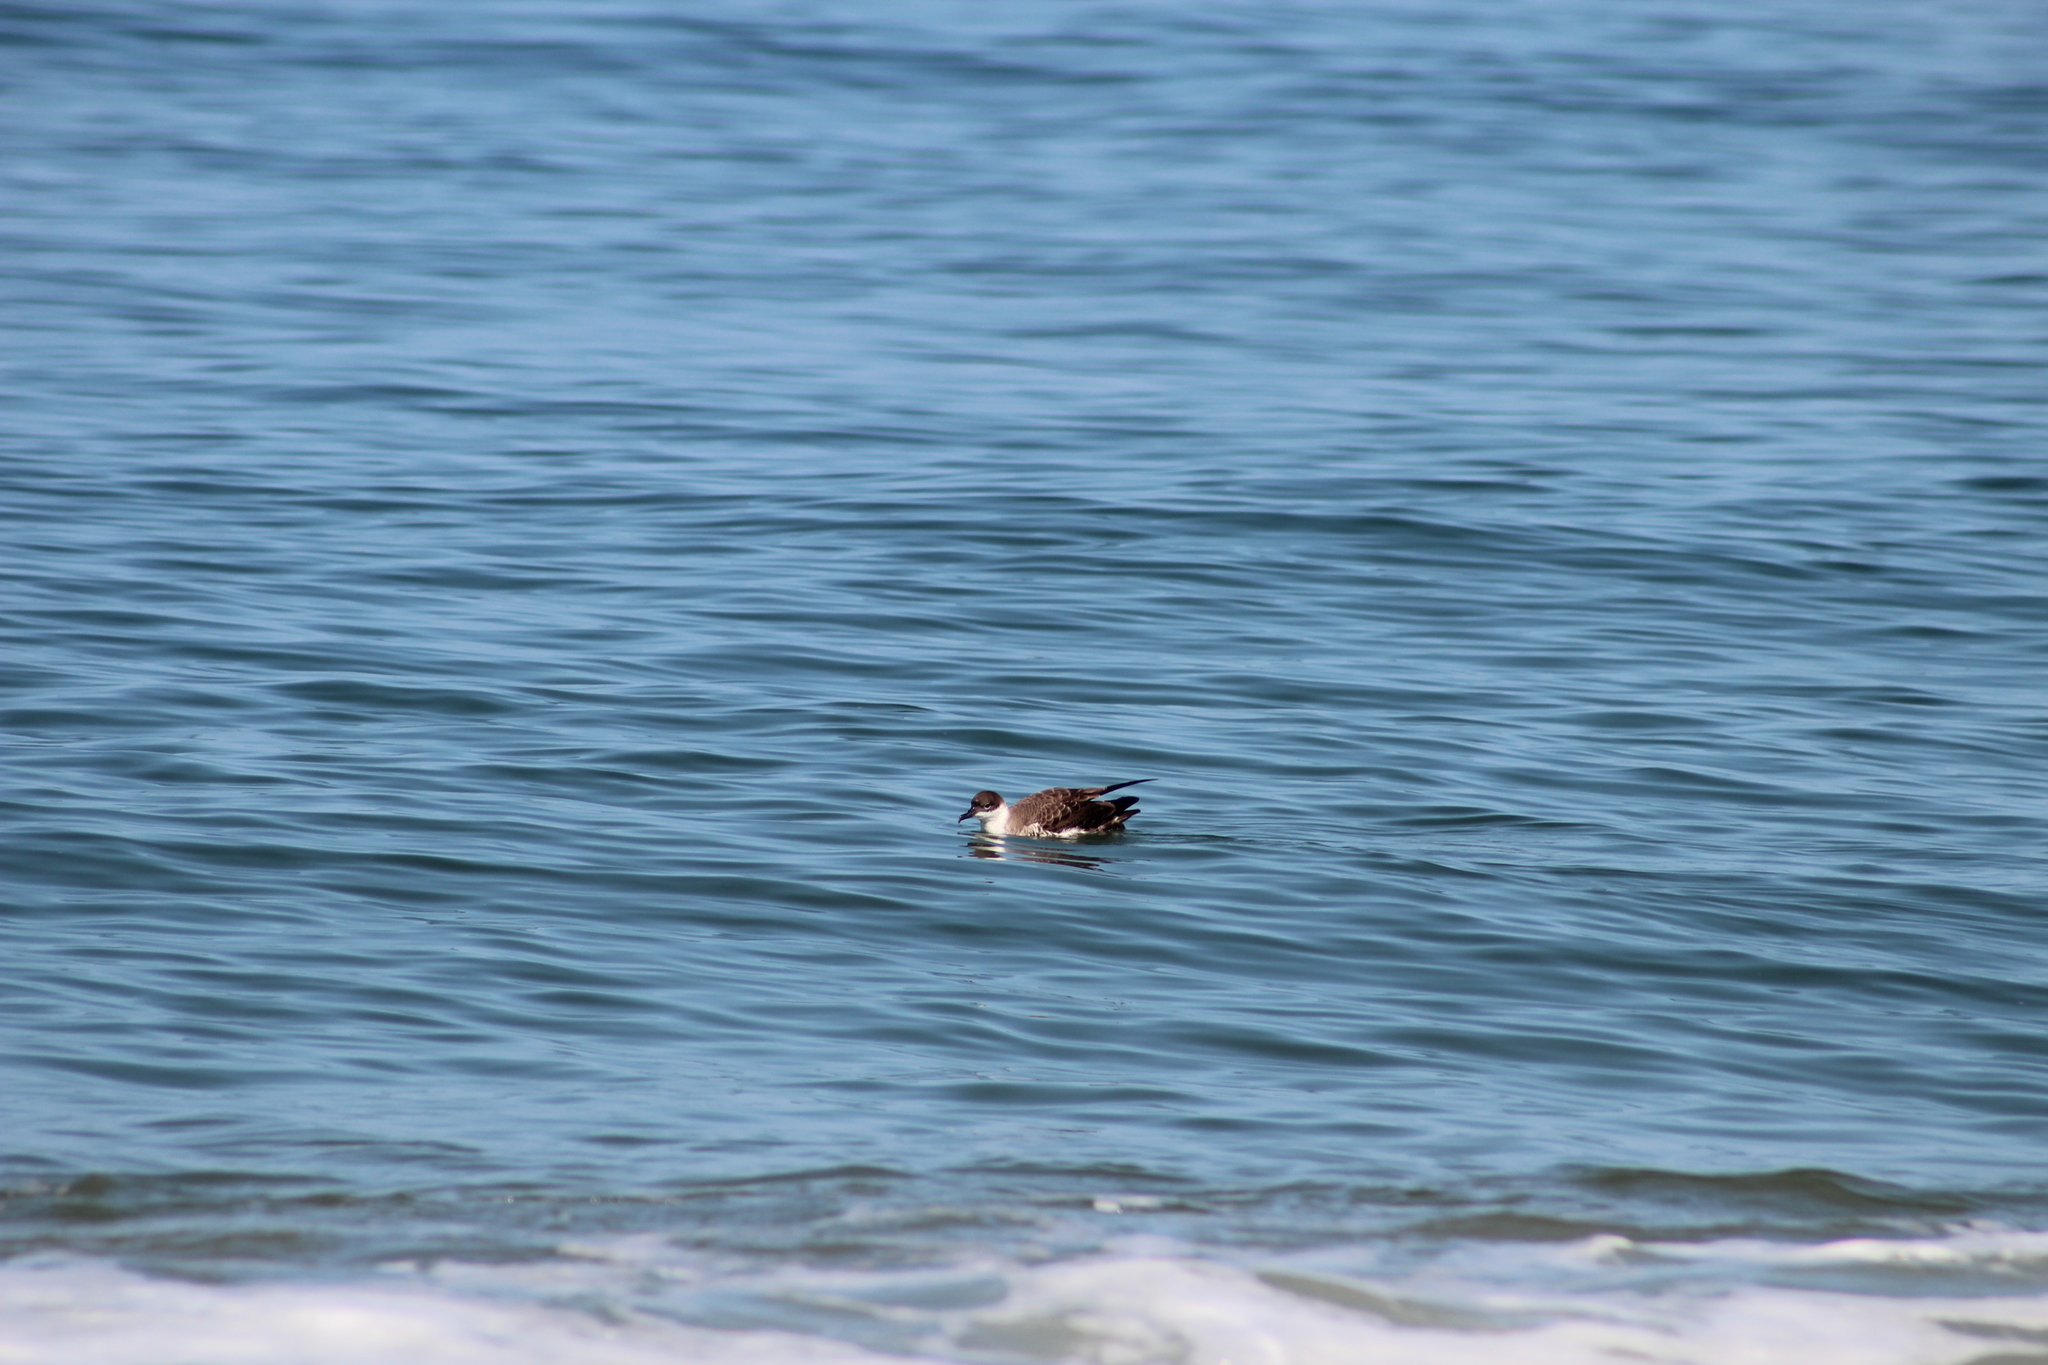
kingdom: Animalia
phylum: Chordata
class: Aves
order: Procellariiformes
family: Procellariidae
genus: Puffinus
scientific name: Puffinus gravis
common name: Great shearwater
